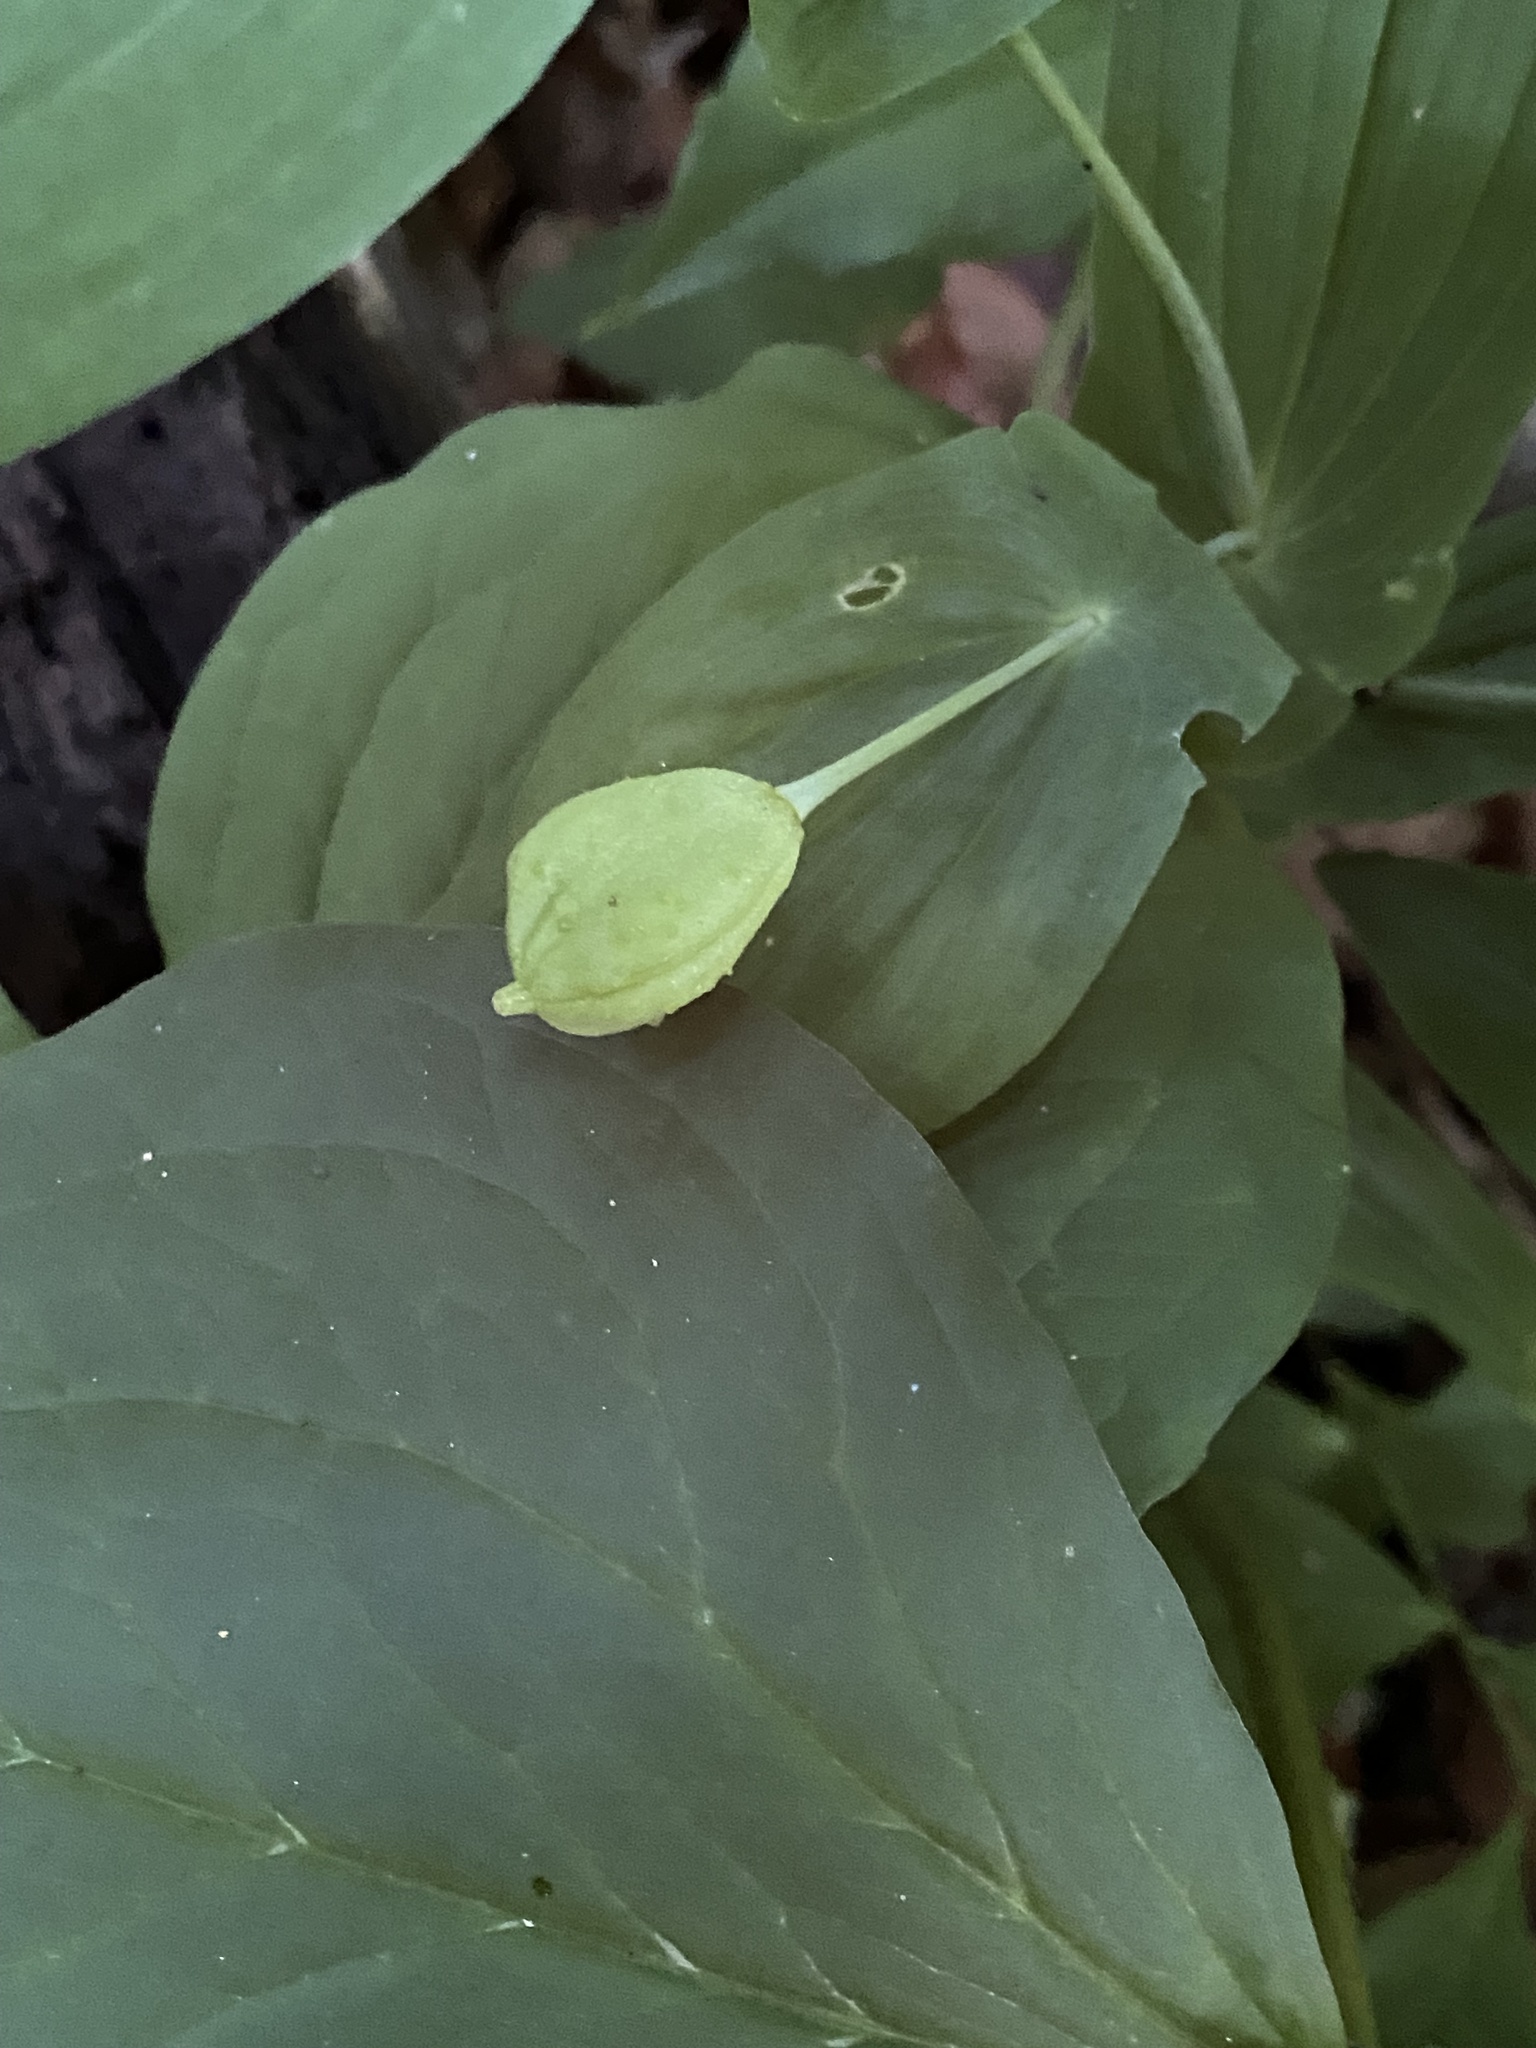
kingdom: Plantae
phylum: Tracheophyta
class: Liliopsida
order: Liliales
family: Colchicaceae
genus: Uvularia
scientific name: Uvularia grandiflora
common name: Bellwort
